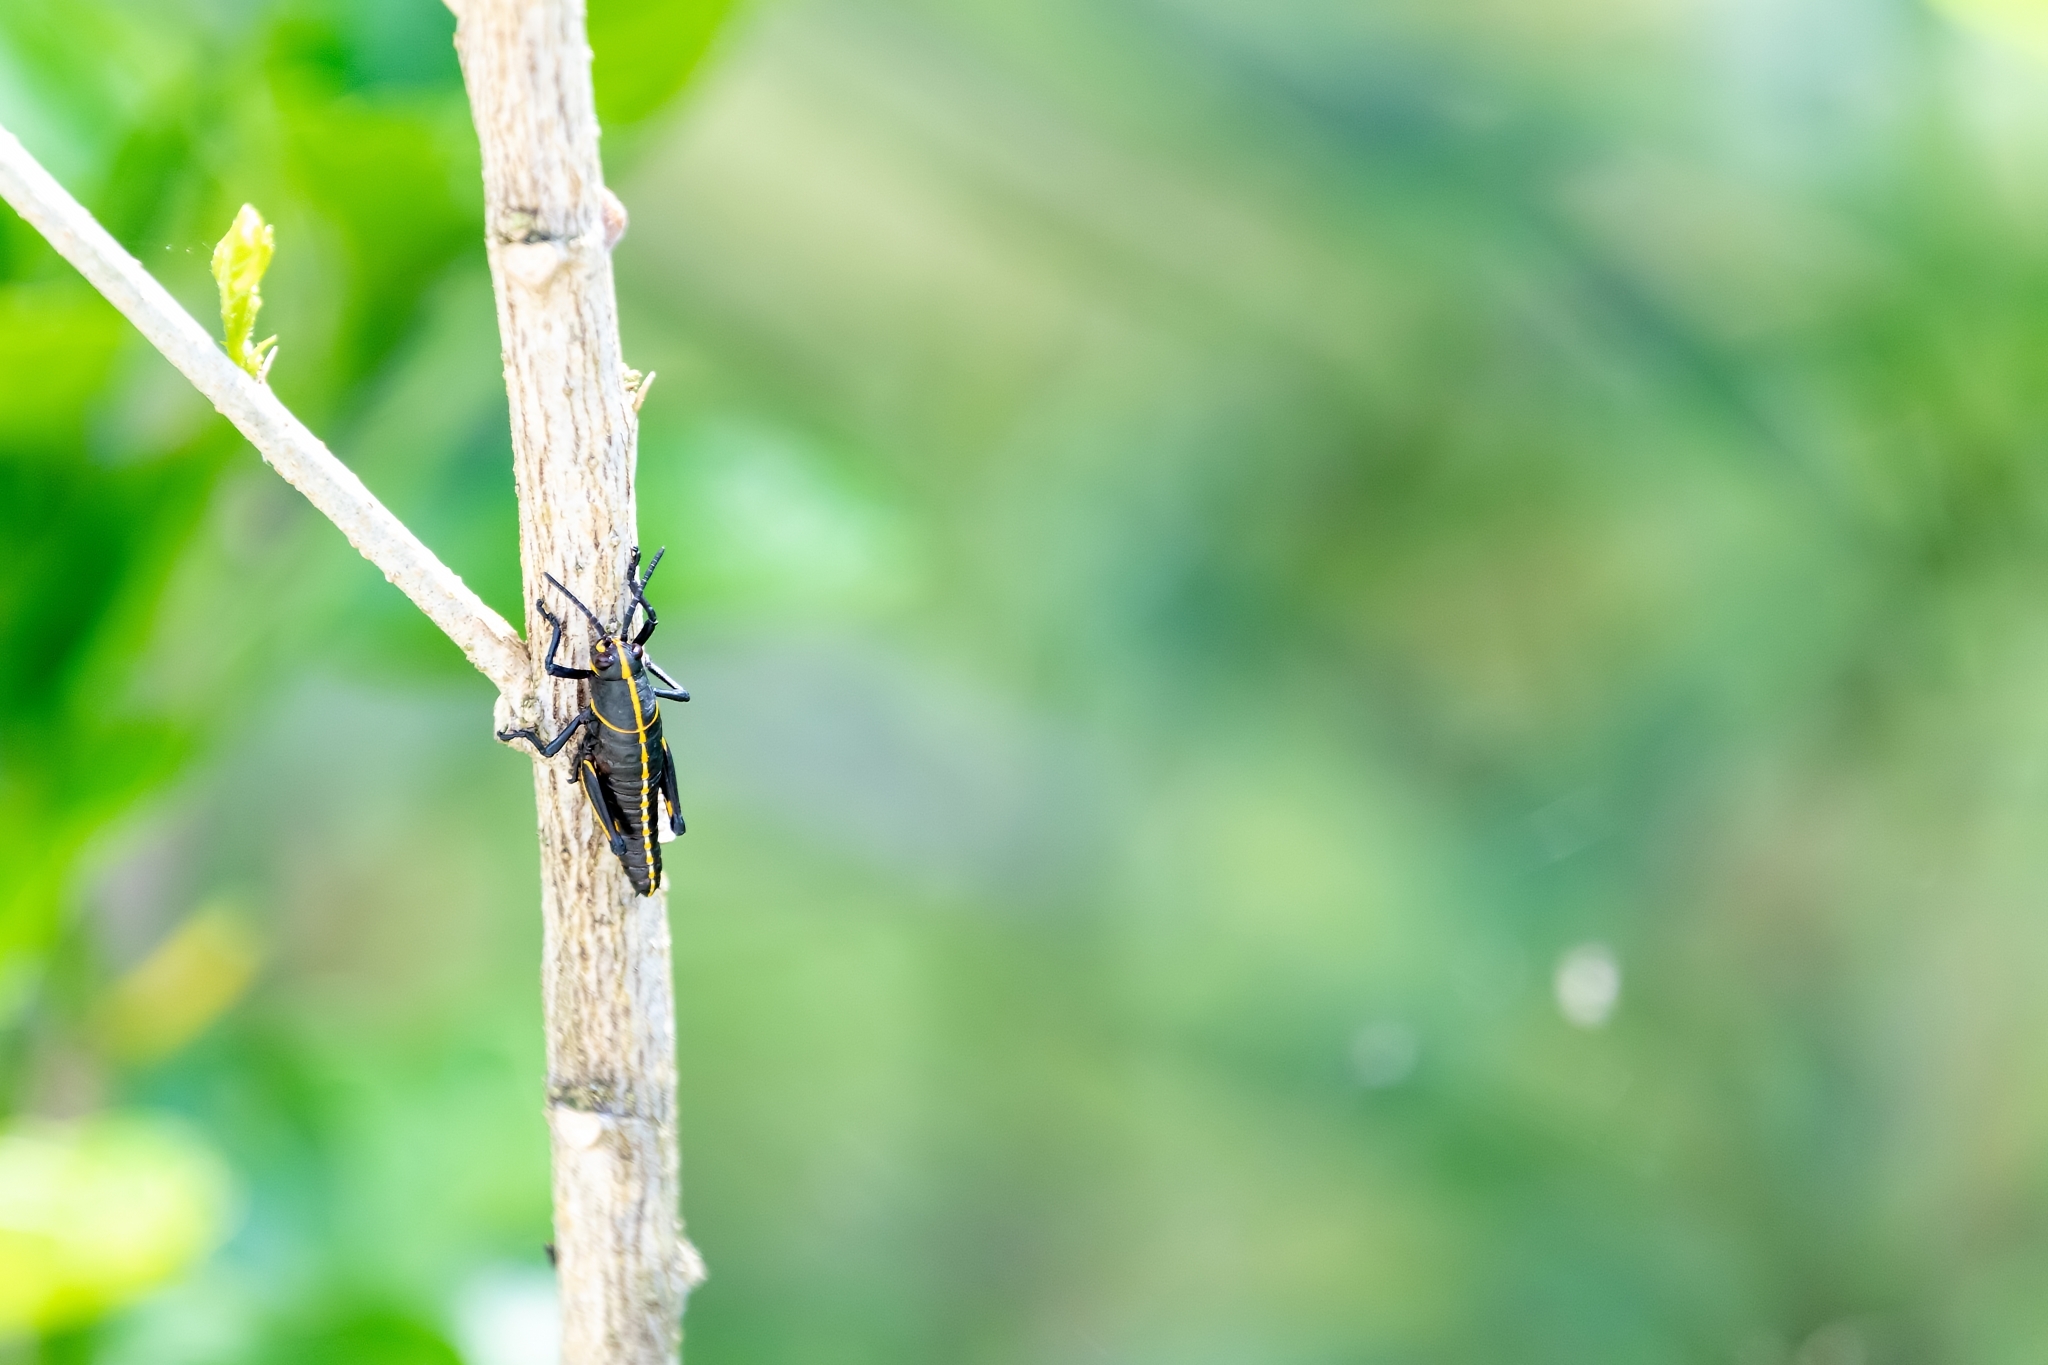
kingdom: Animalia
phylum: Arthropoda
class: Insecta
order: Orthoptera
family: Romaleidae
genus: Romalea
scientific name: Romalea microptera
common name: Eastern lubber grasshopper
